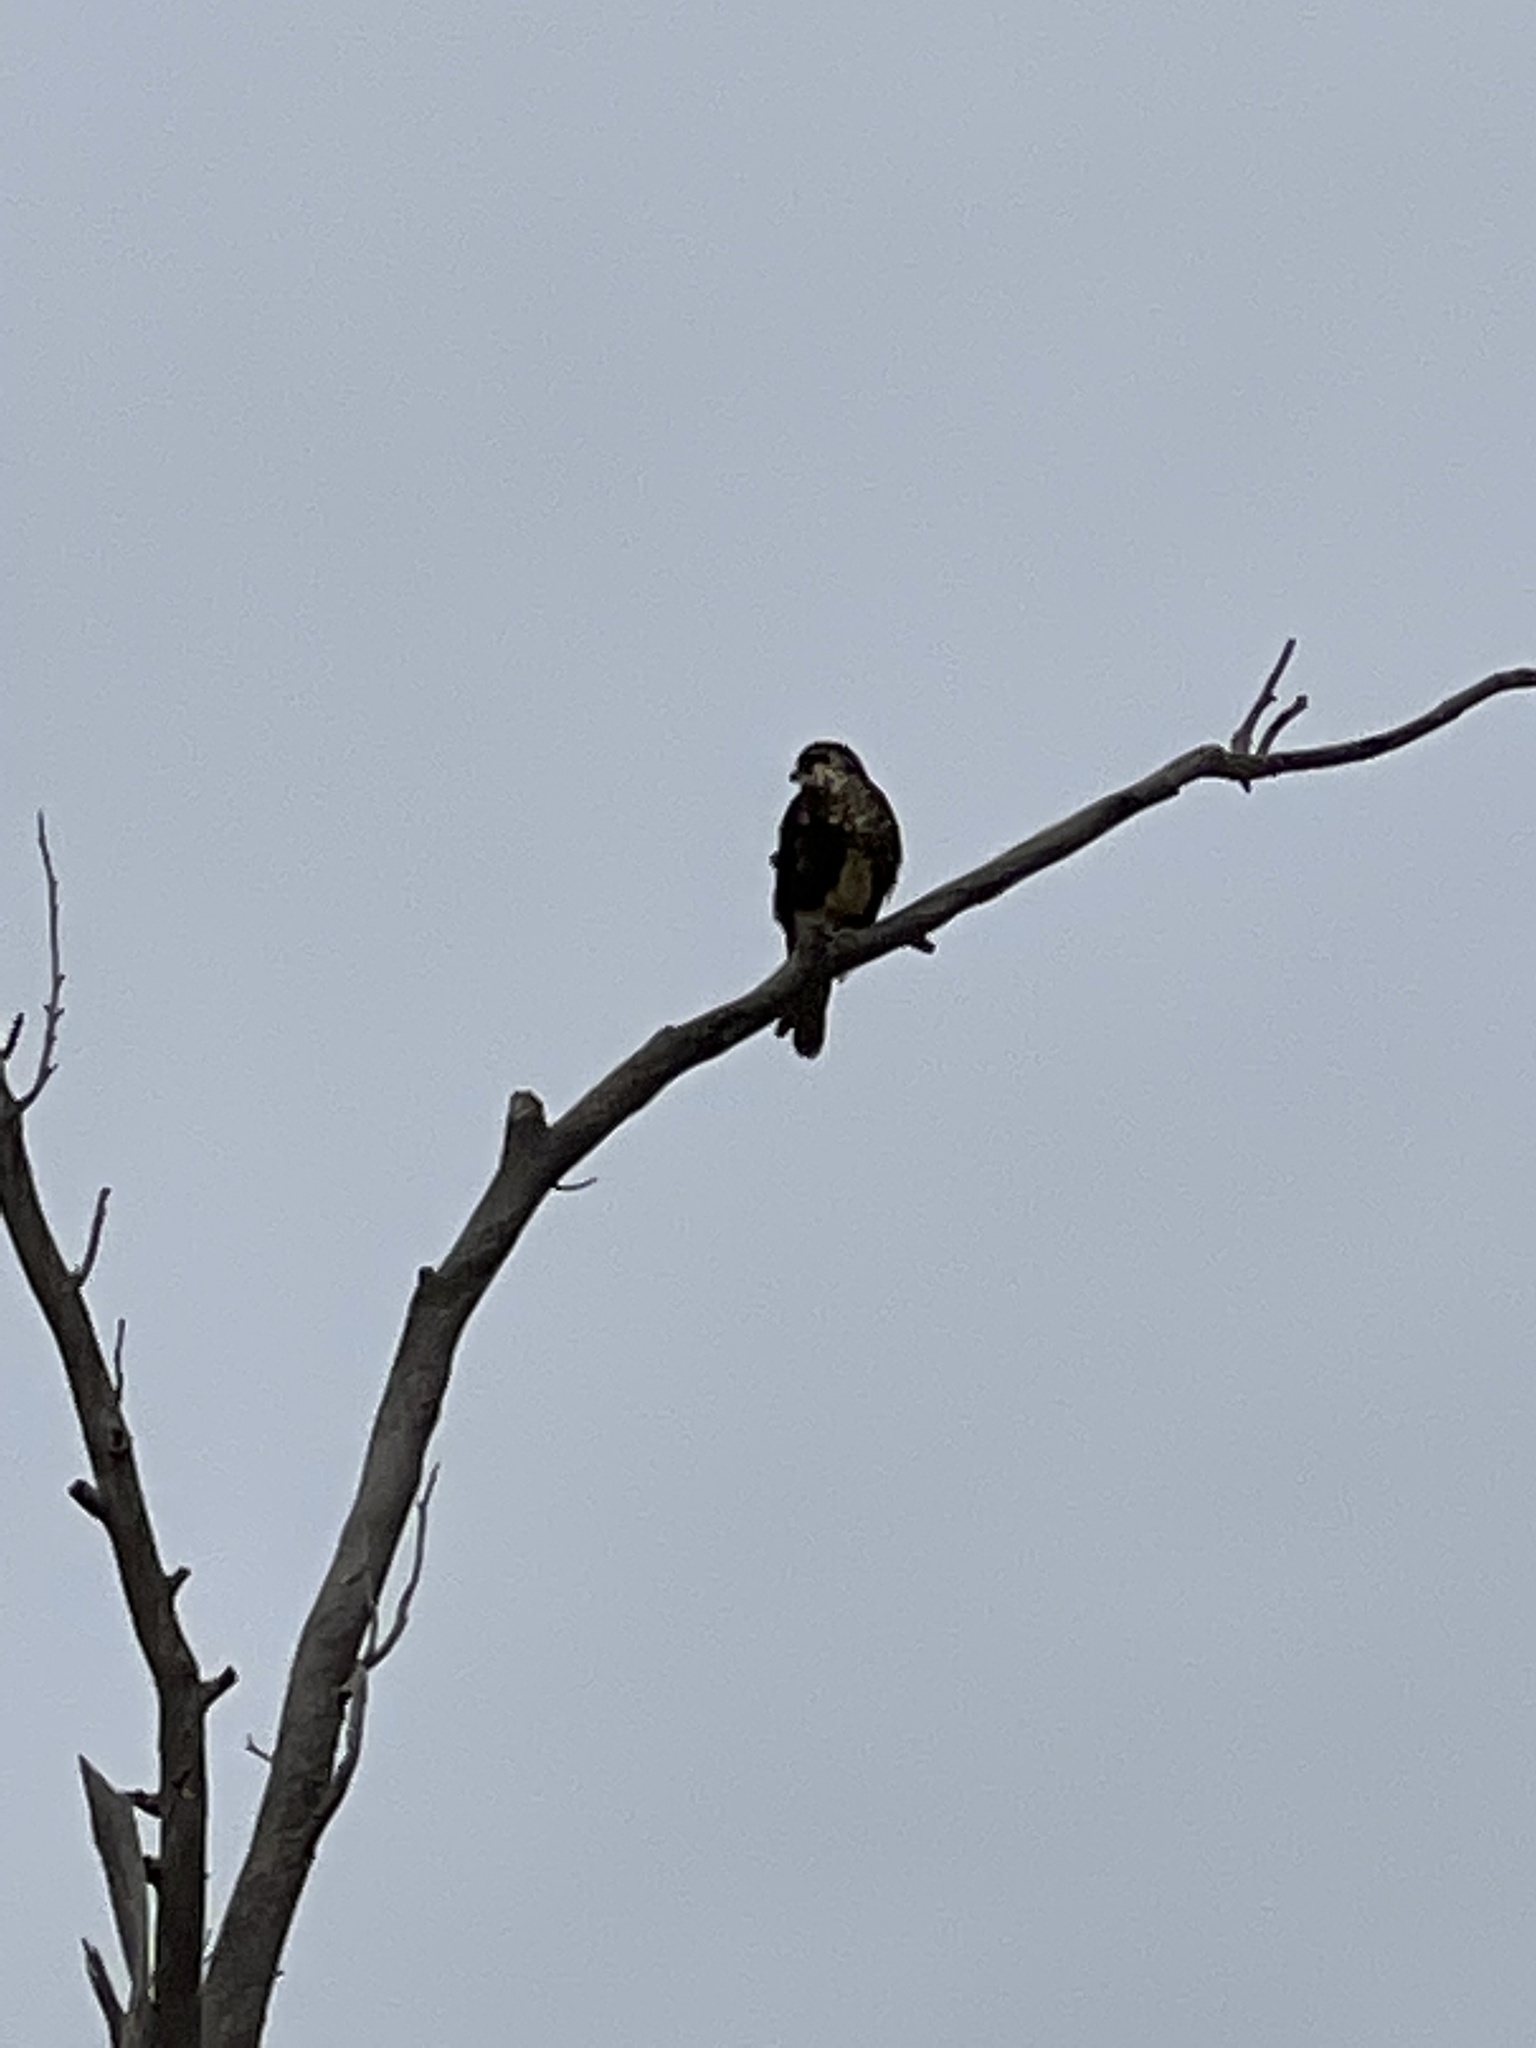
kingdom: Animalia
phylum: Chordata
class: Aves
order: Falconiformes
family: Falconidae
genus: Falco
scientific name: Falco berigora
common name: Brown falcon
